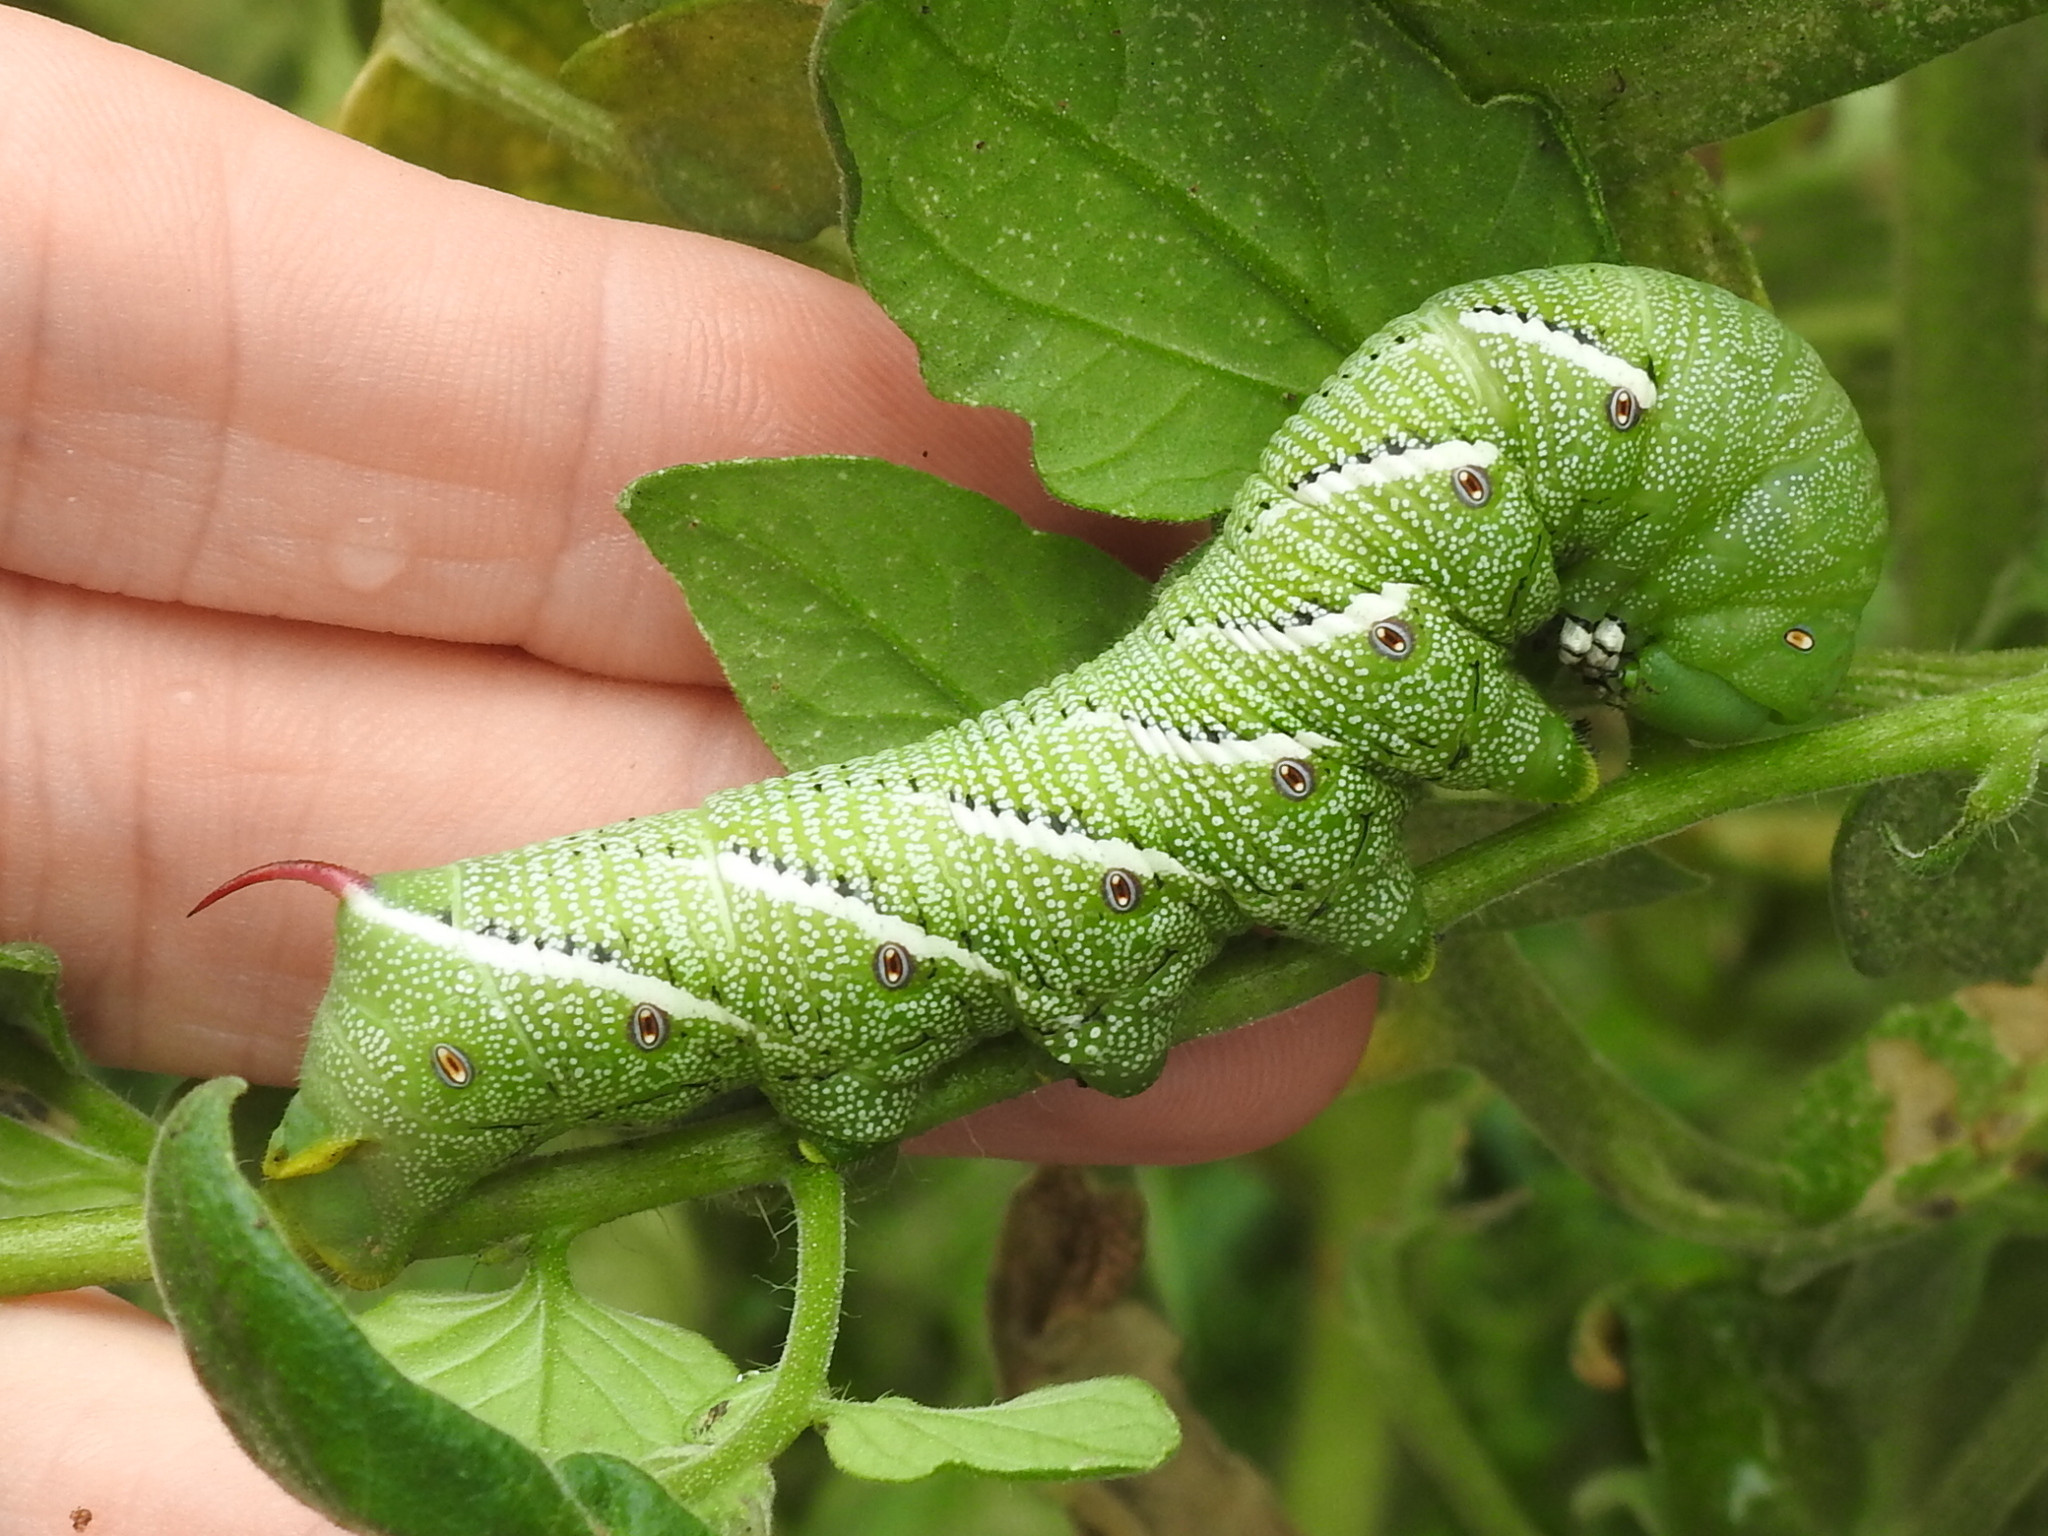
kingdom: Animalia
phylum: Arthropoda
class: Insecta
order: Lepidoptera
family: Sphingidae
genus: Manduca
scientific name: Manduca sexta
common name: Carolina sphinx
